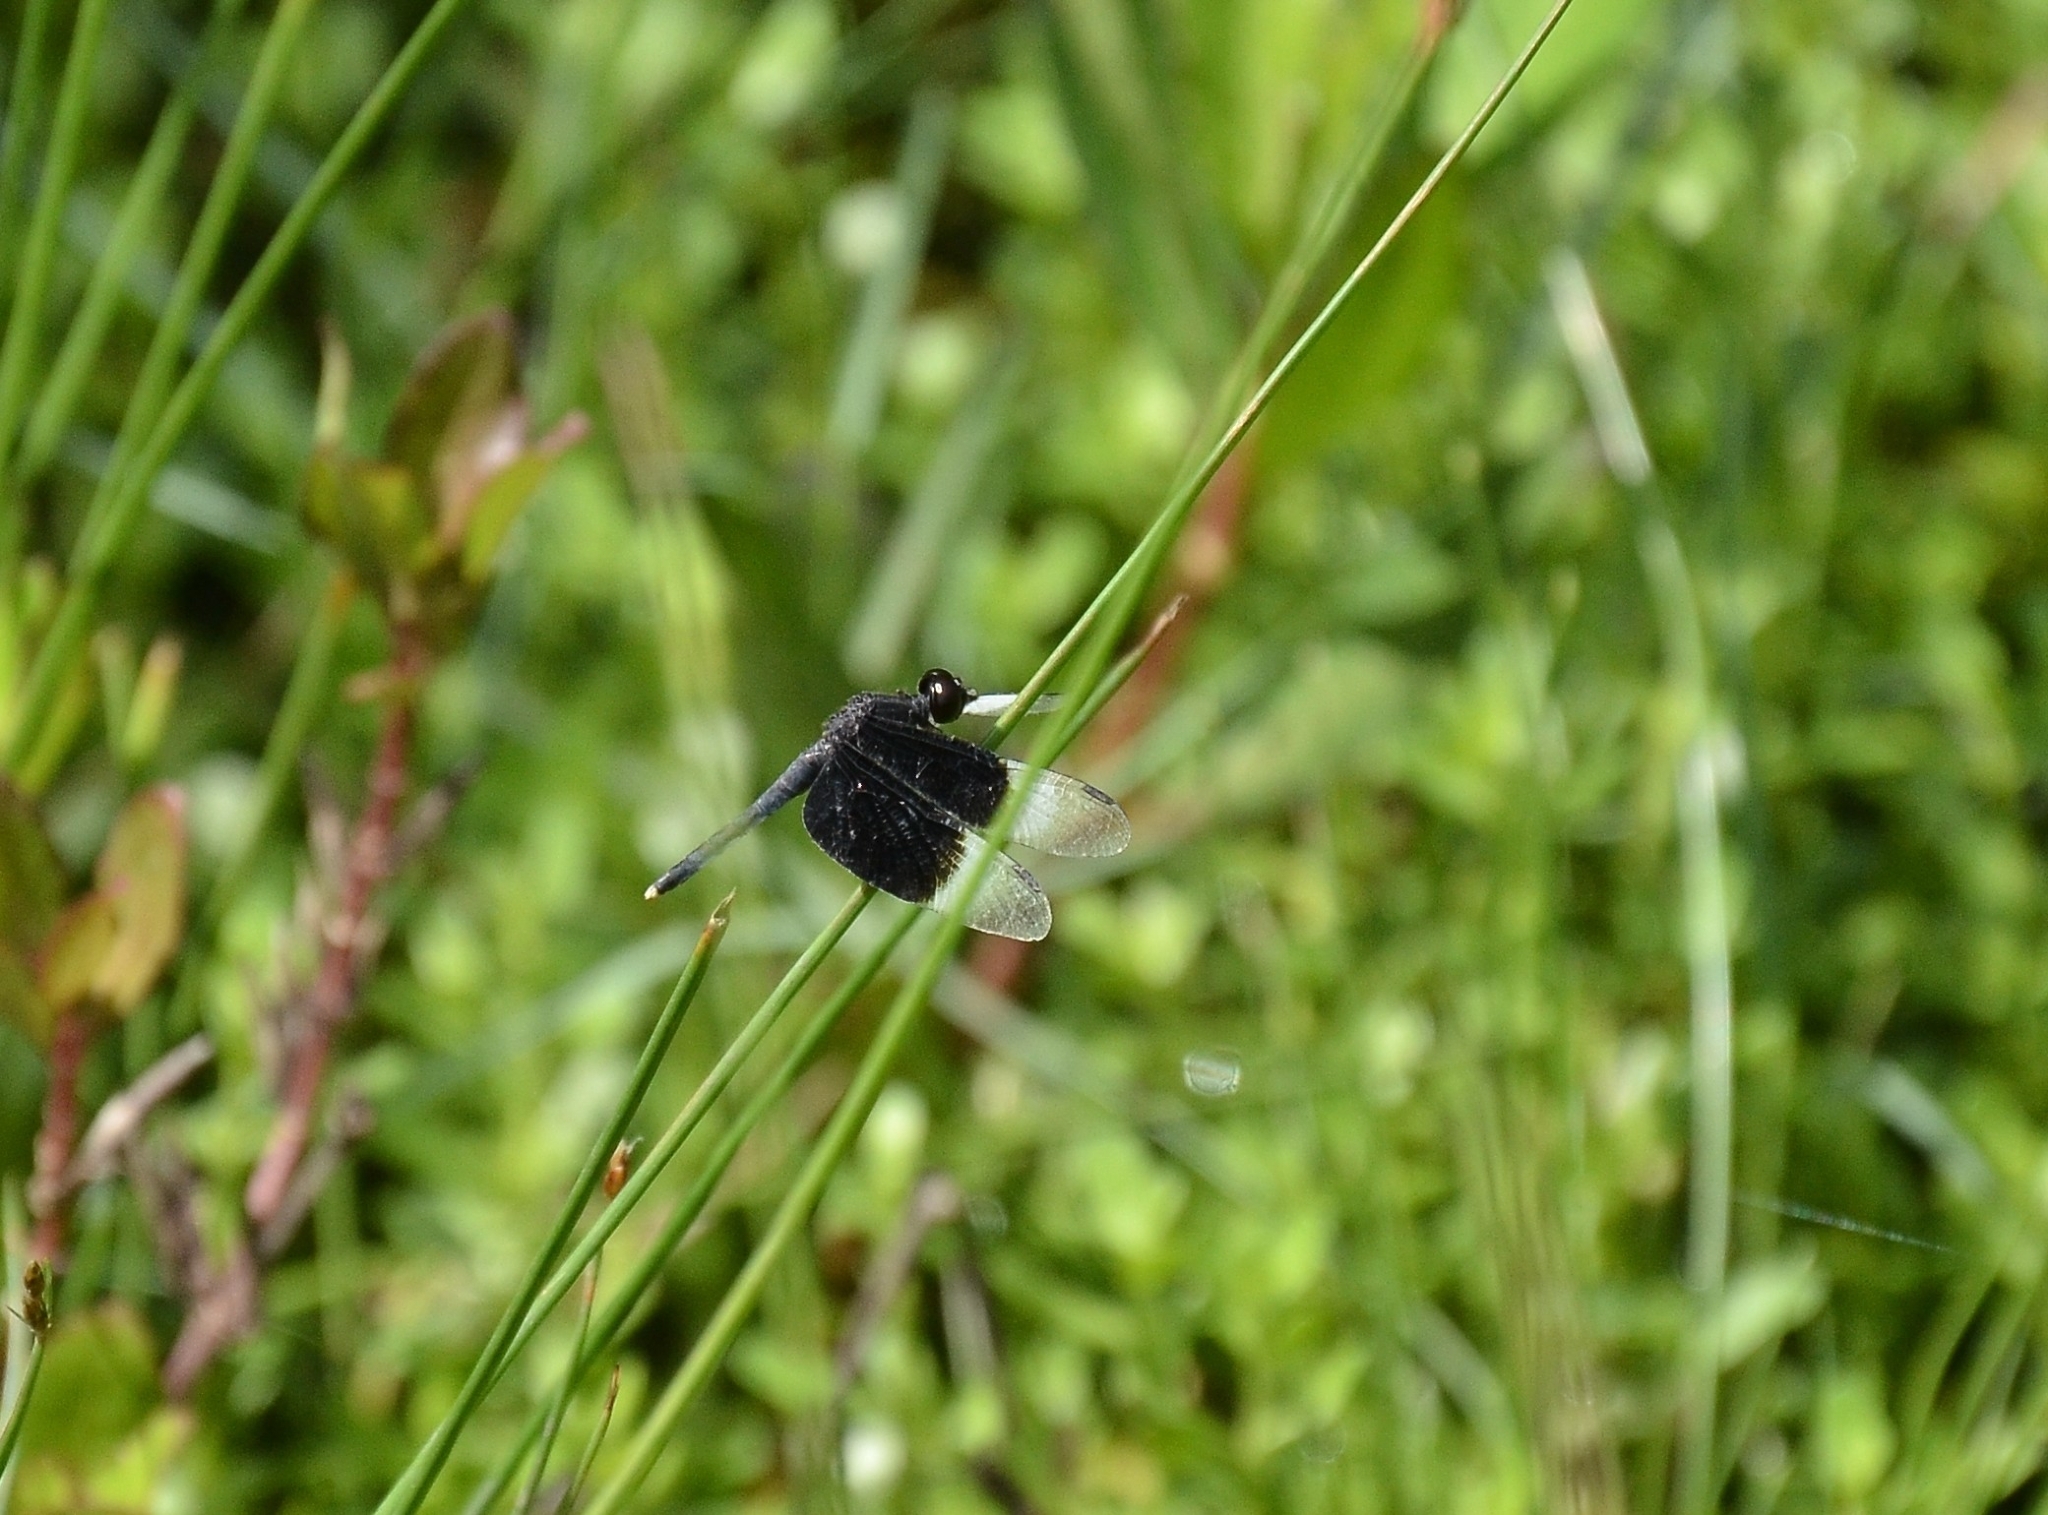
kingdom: Animalia
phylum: Arthropoda
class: Insecta
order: Odonata
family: Libellulidae
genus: Neurothemis
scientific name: Neurothemis tullia
